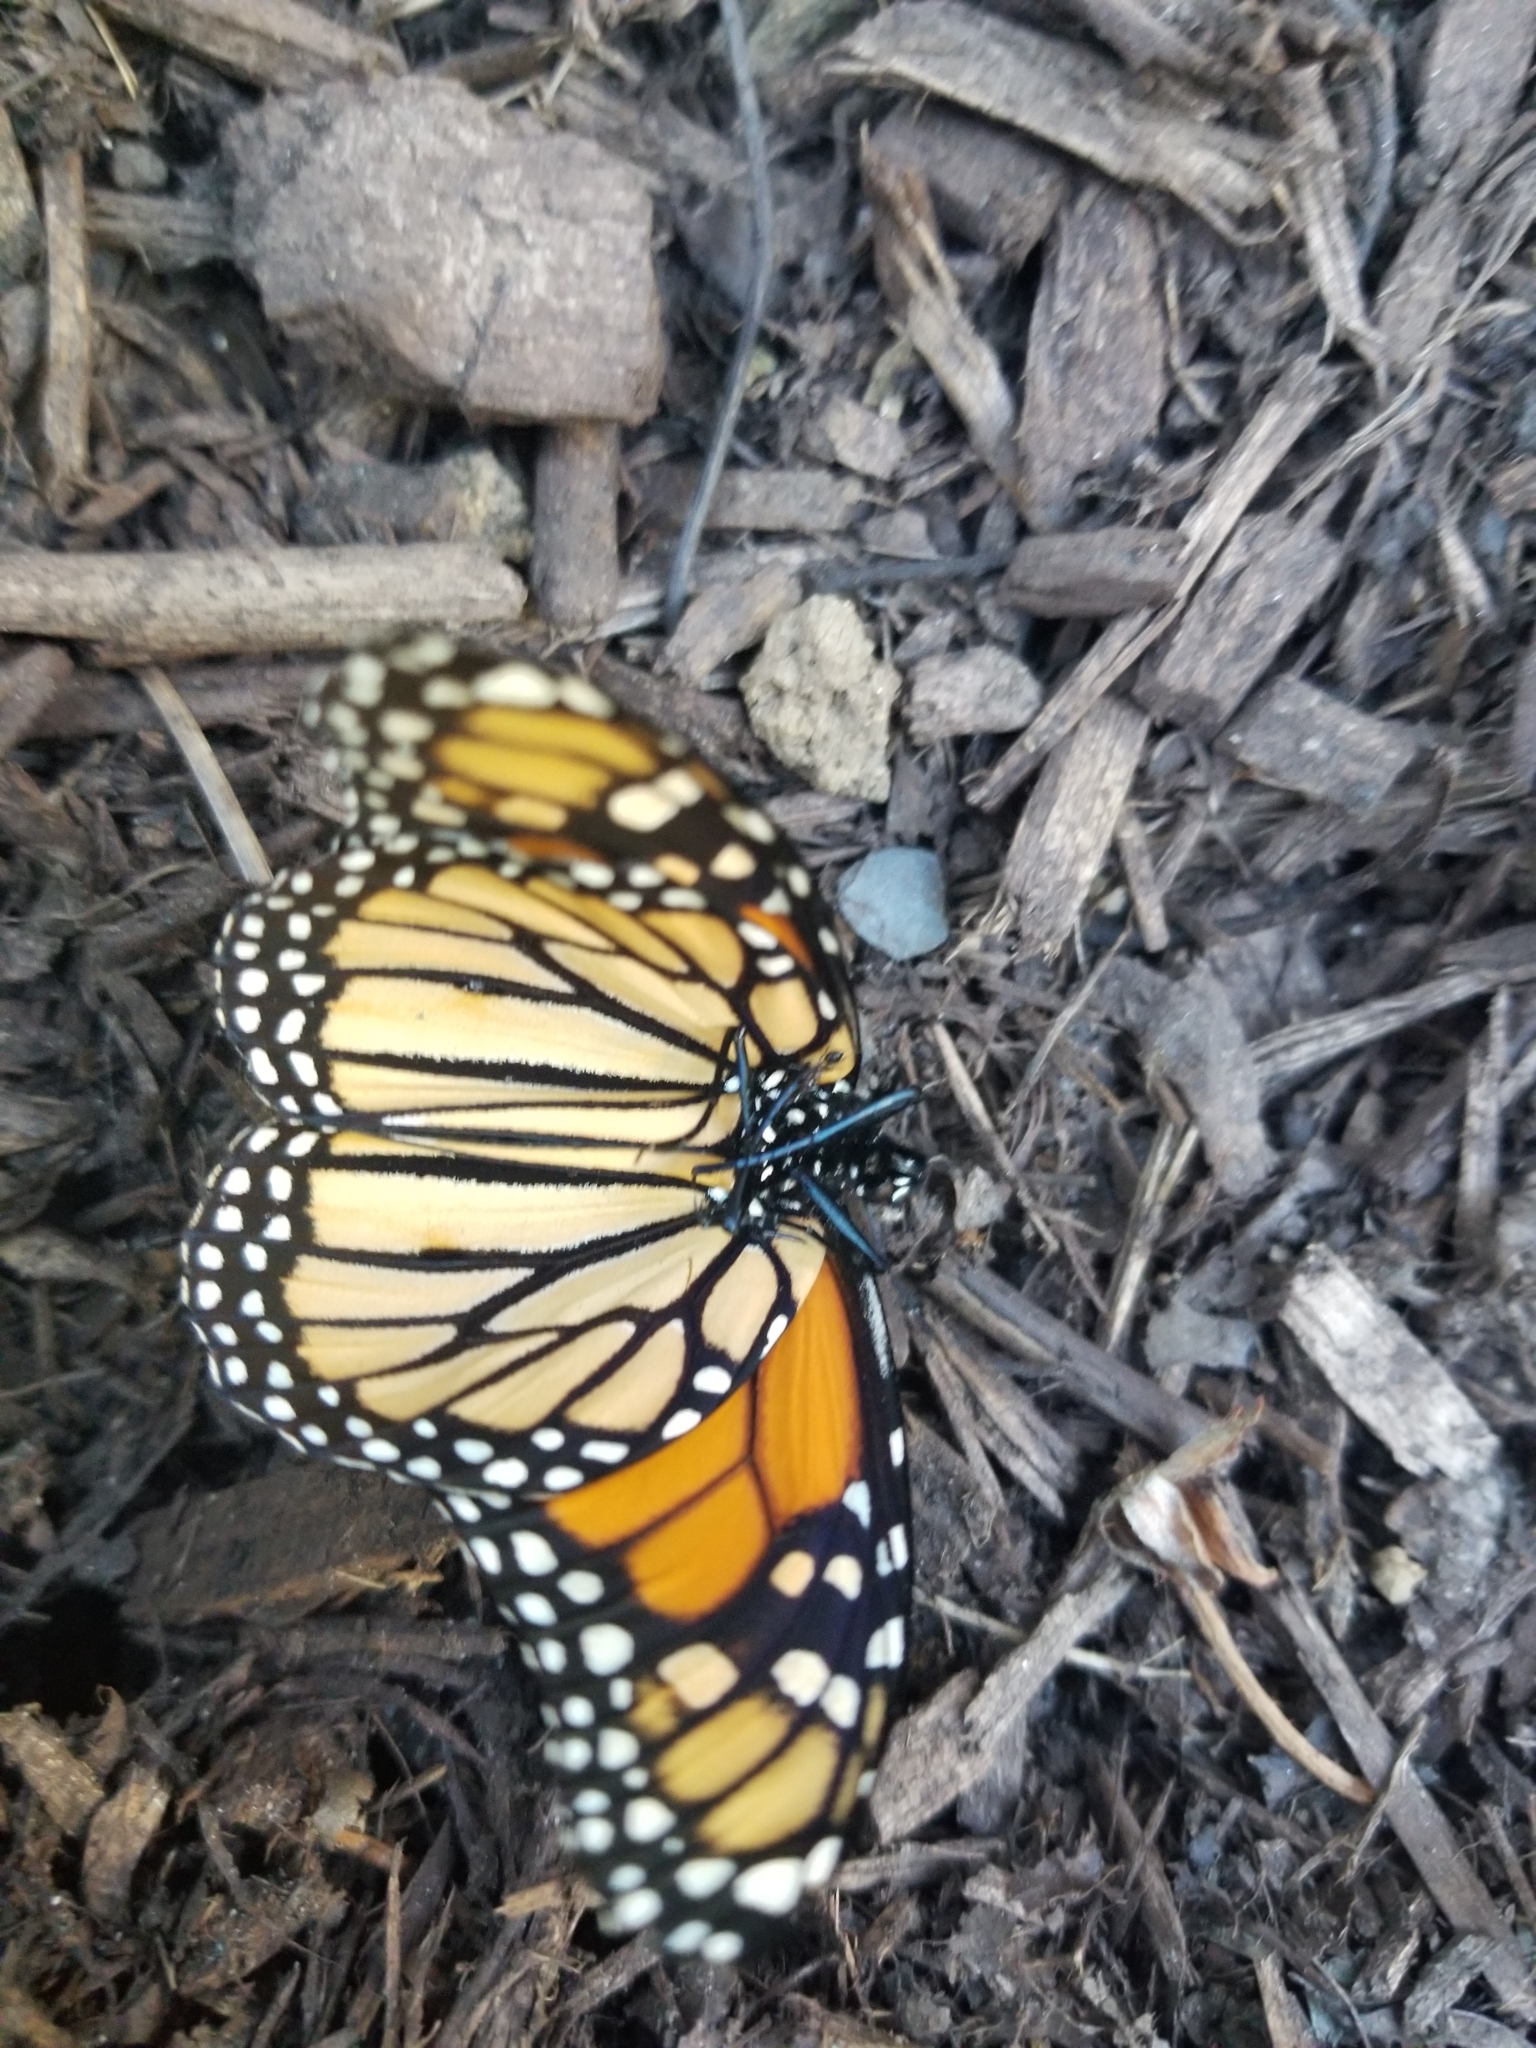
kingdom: Animalia
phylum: Arthropoda
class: Insecta
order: Lepidoptera
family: Nymphalidae
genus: Danaus
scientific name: Danaus plexippus
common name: Monarch
